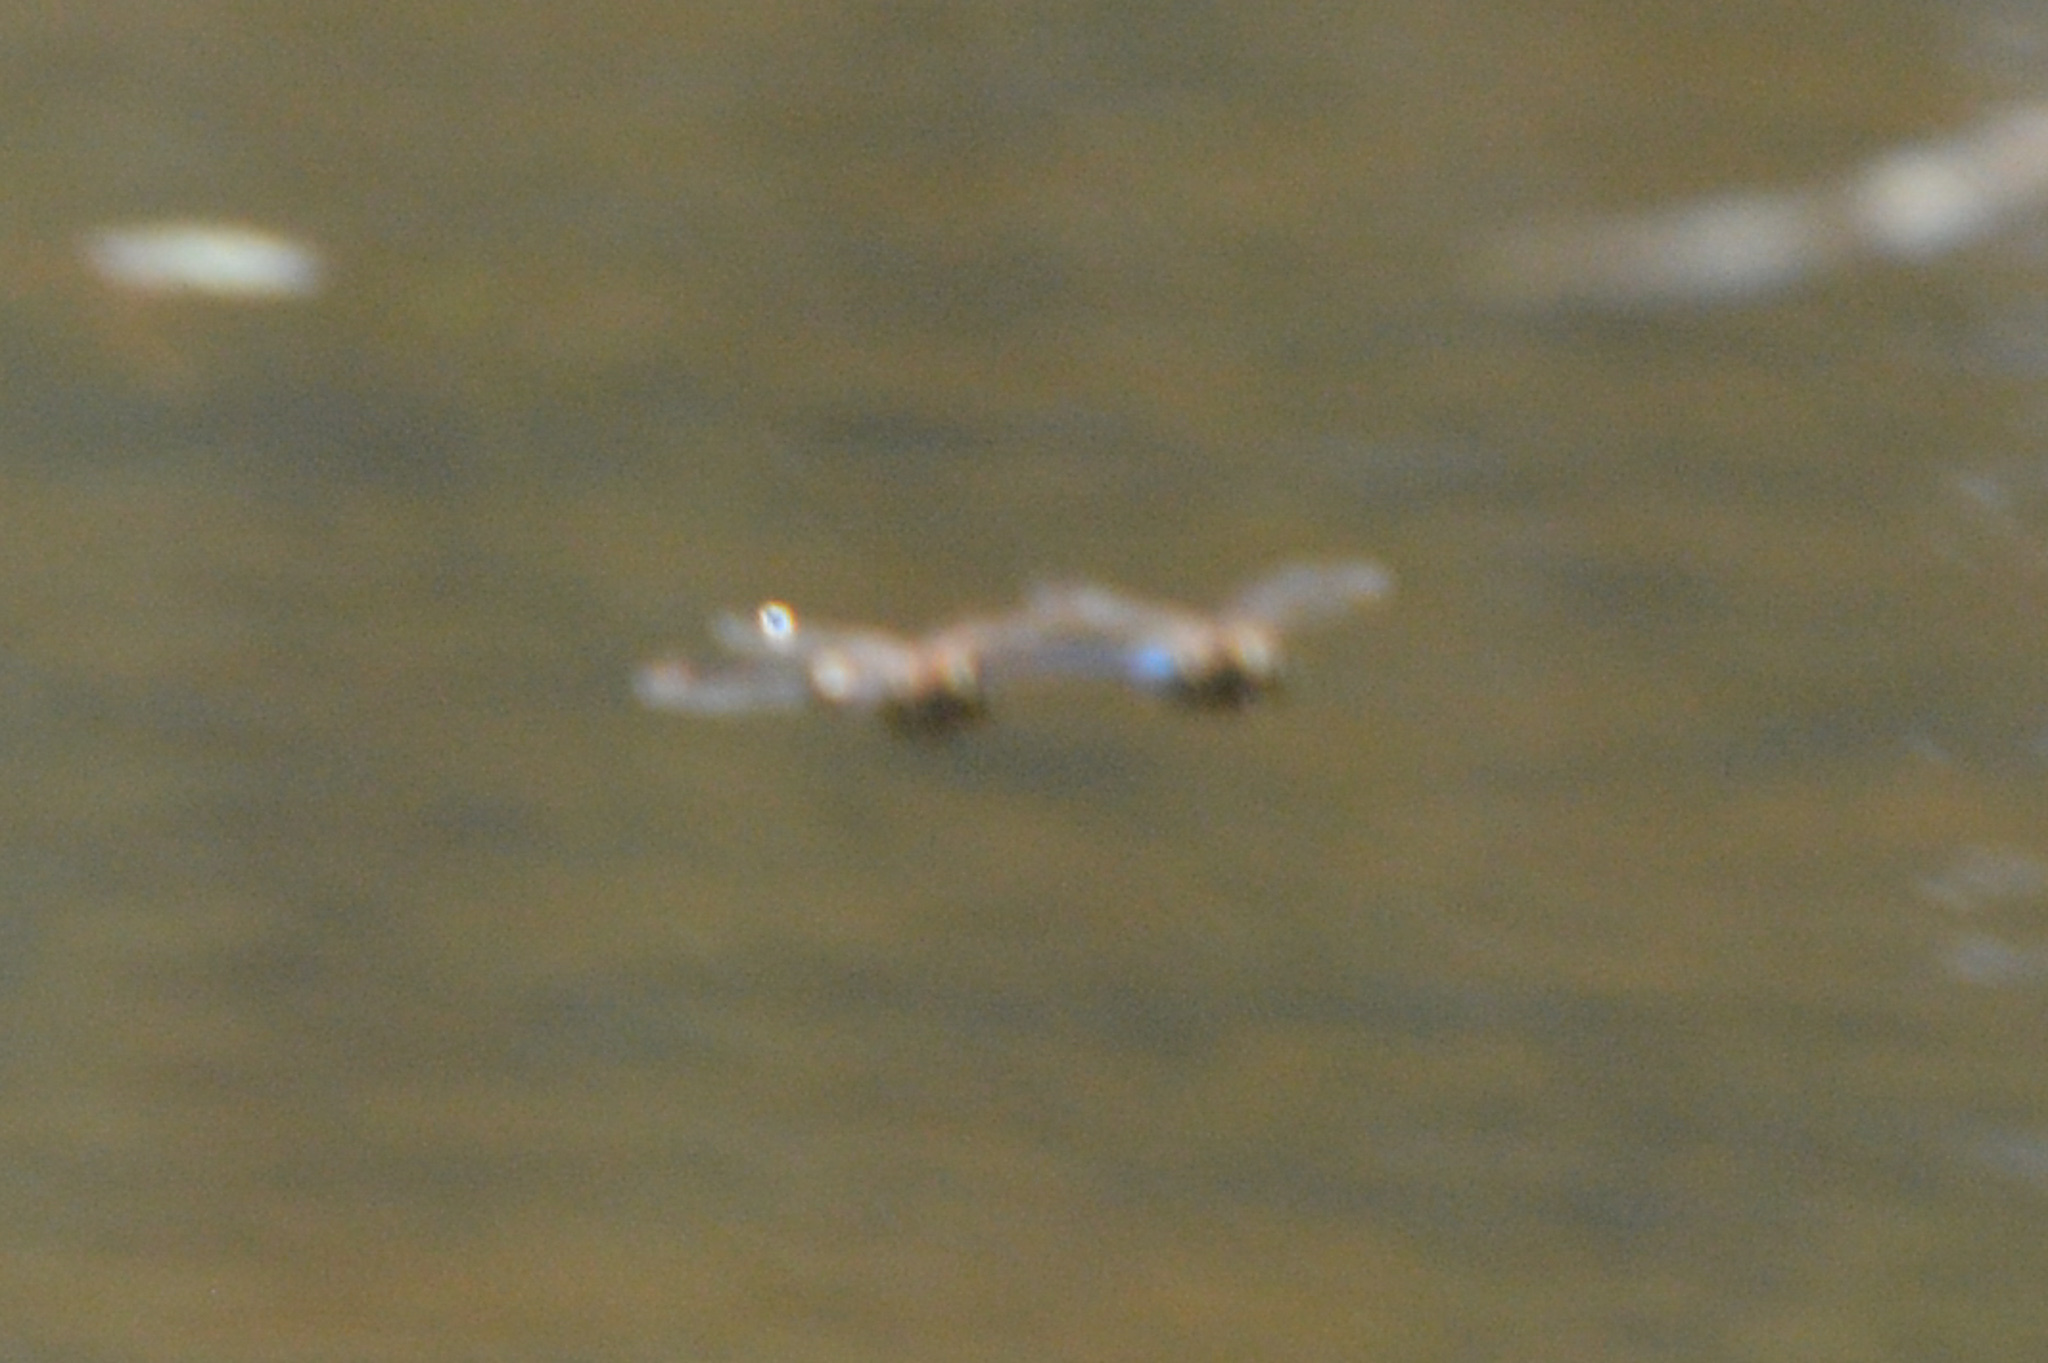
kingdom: Animalia
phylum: Arthropoda
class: Insecta
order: Odonata
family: Aeshnidae
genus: Anax
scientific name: Anax junius
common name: Common green darner
